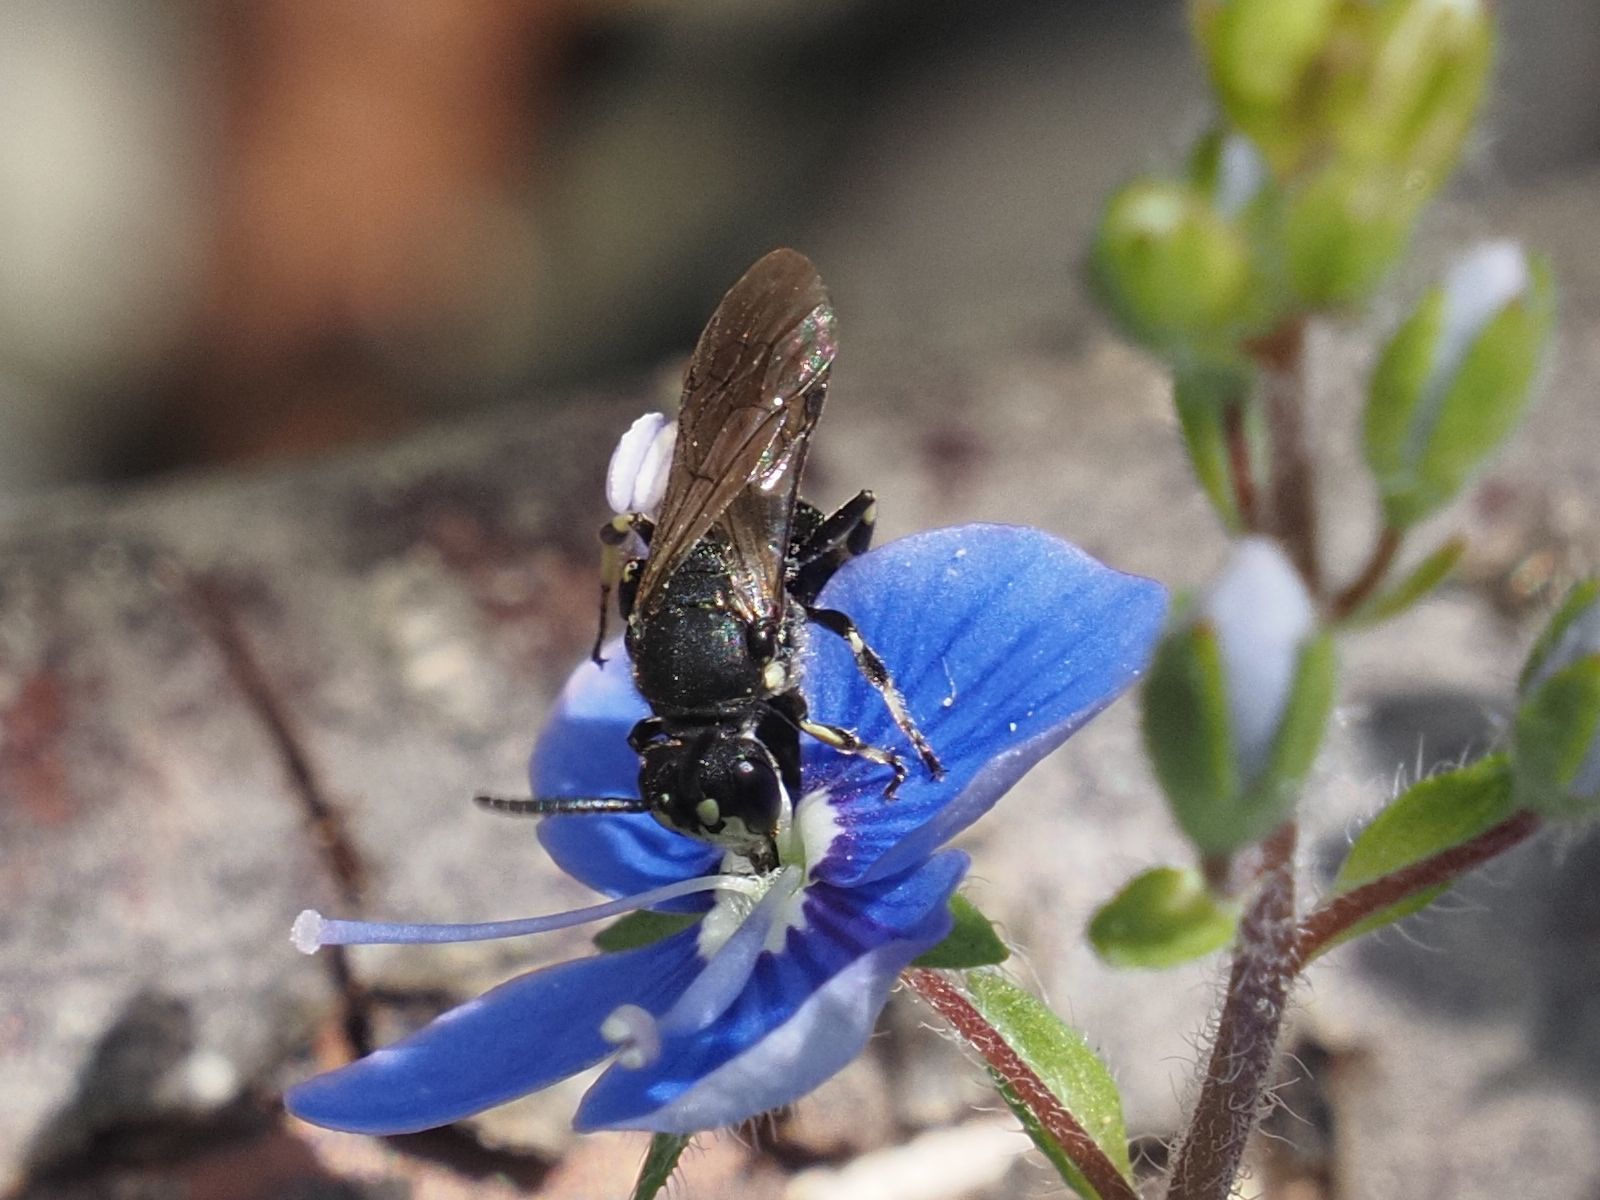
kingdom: Animalia
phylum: Arthropoda
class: Insecta
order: Hymenoptera
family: Colletidae
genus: Hylaeus
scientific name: Hylaeus annulatus
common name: Annulate masked bee
